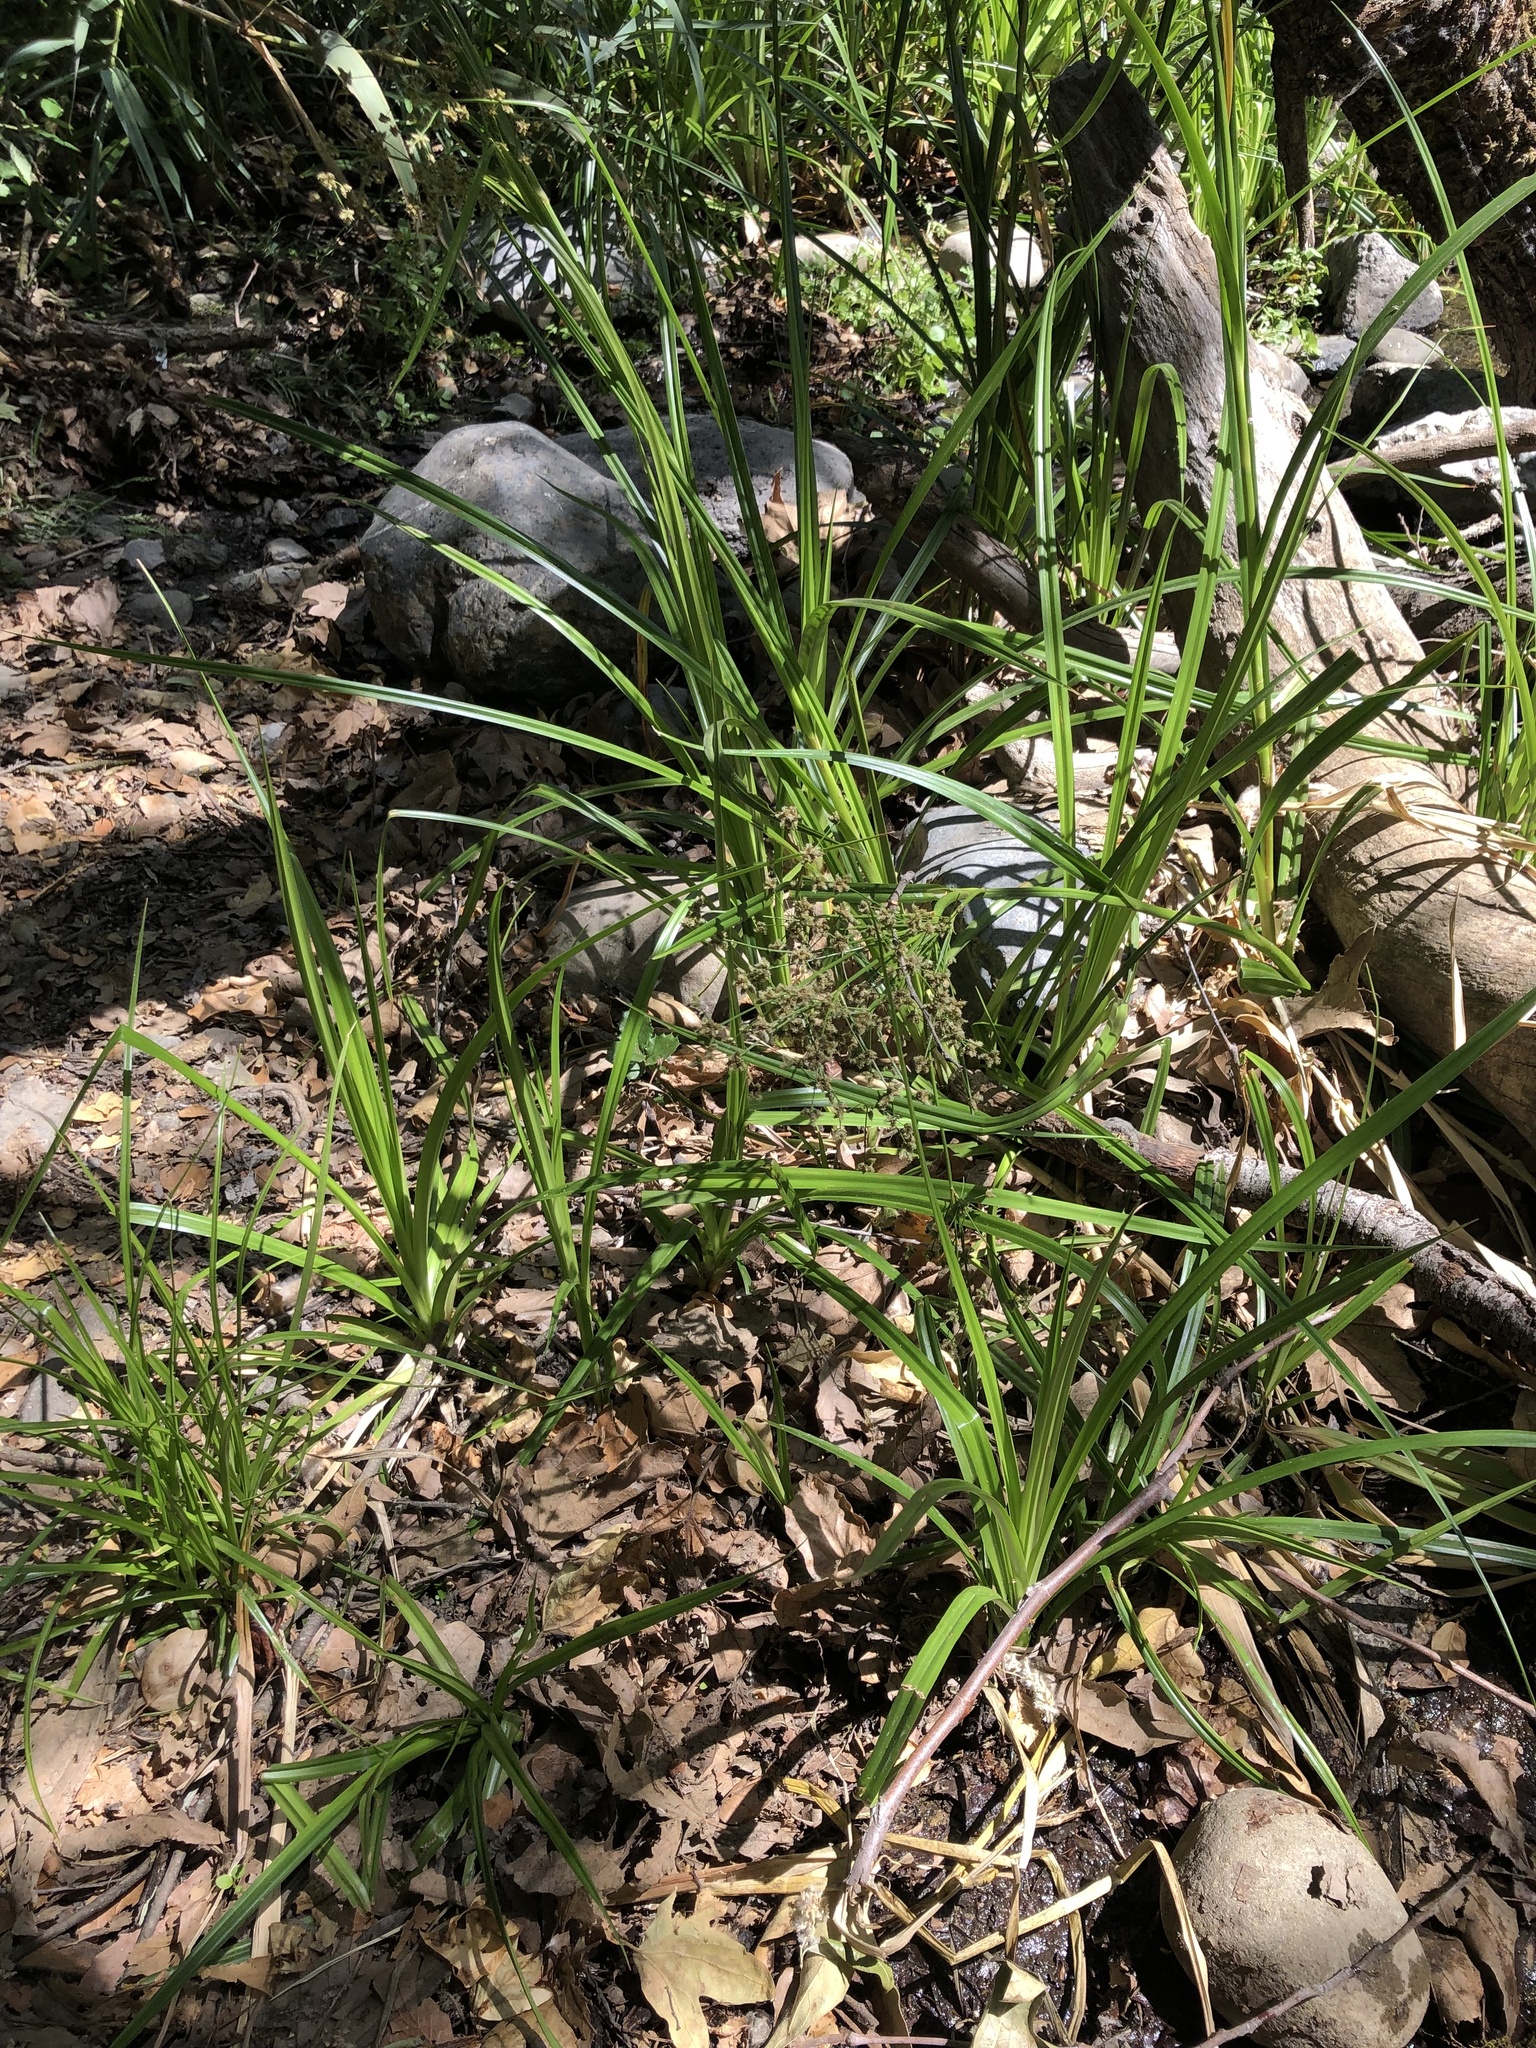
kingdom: Plantae
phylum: Tracheophyta
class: Liliopsida
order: Poales
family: Cyperaceae
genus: Scirpus
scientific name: Scirpus microcarpus
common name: Panicled bulrush
